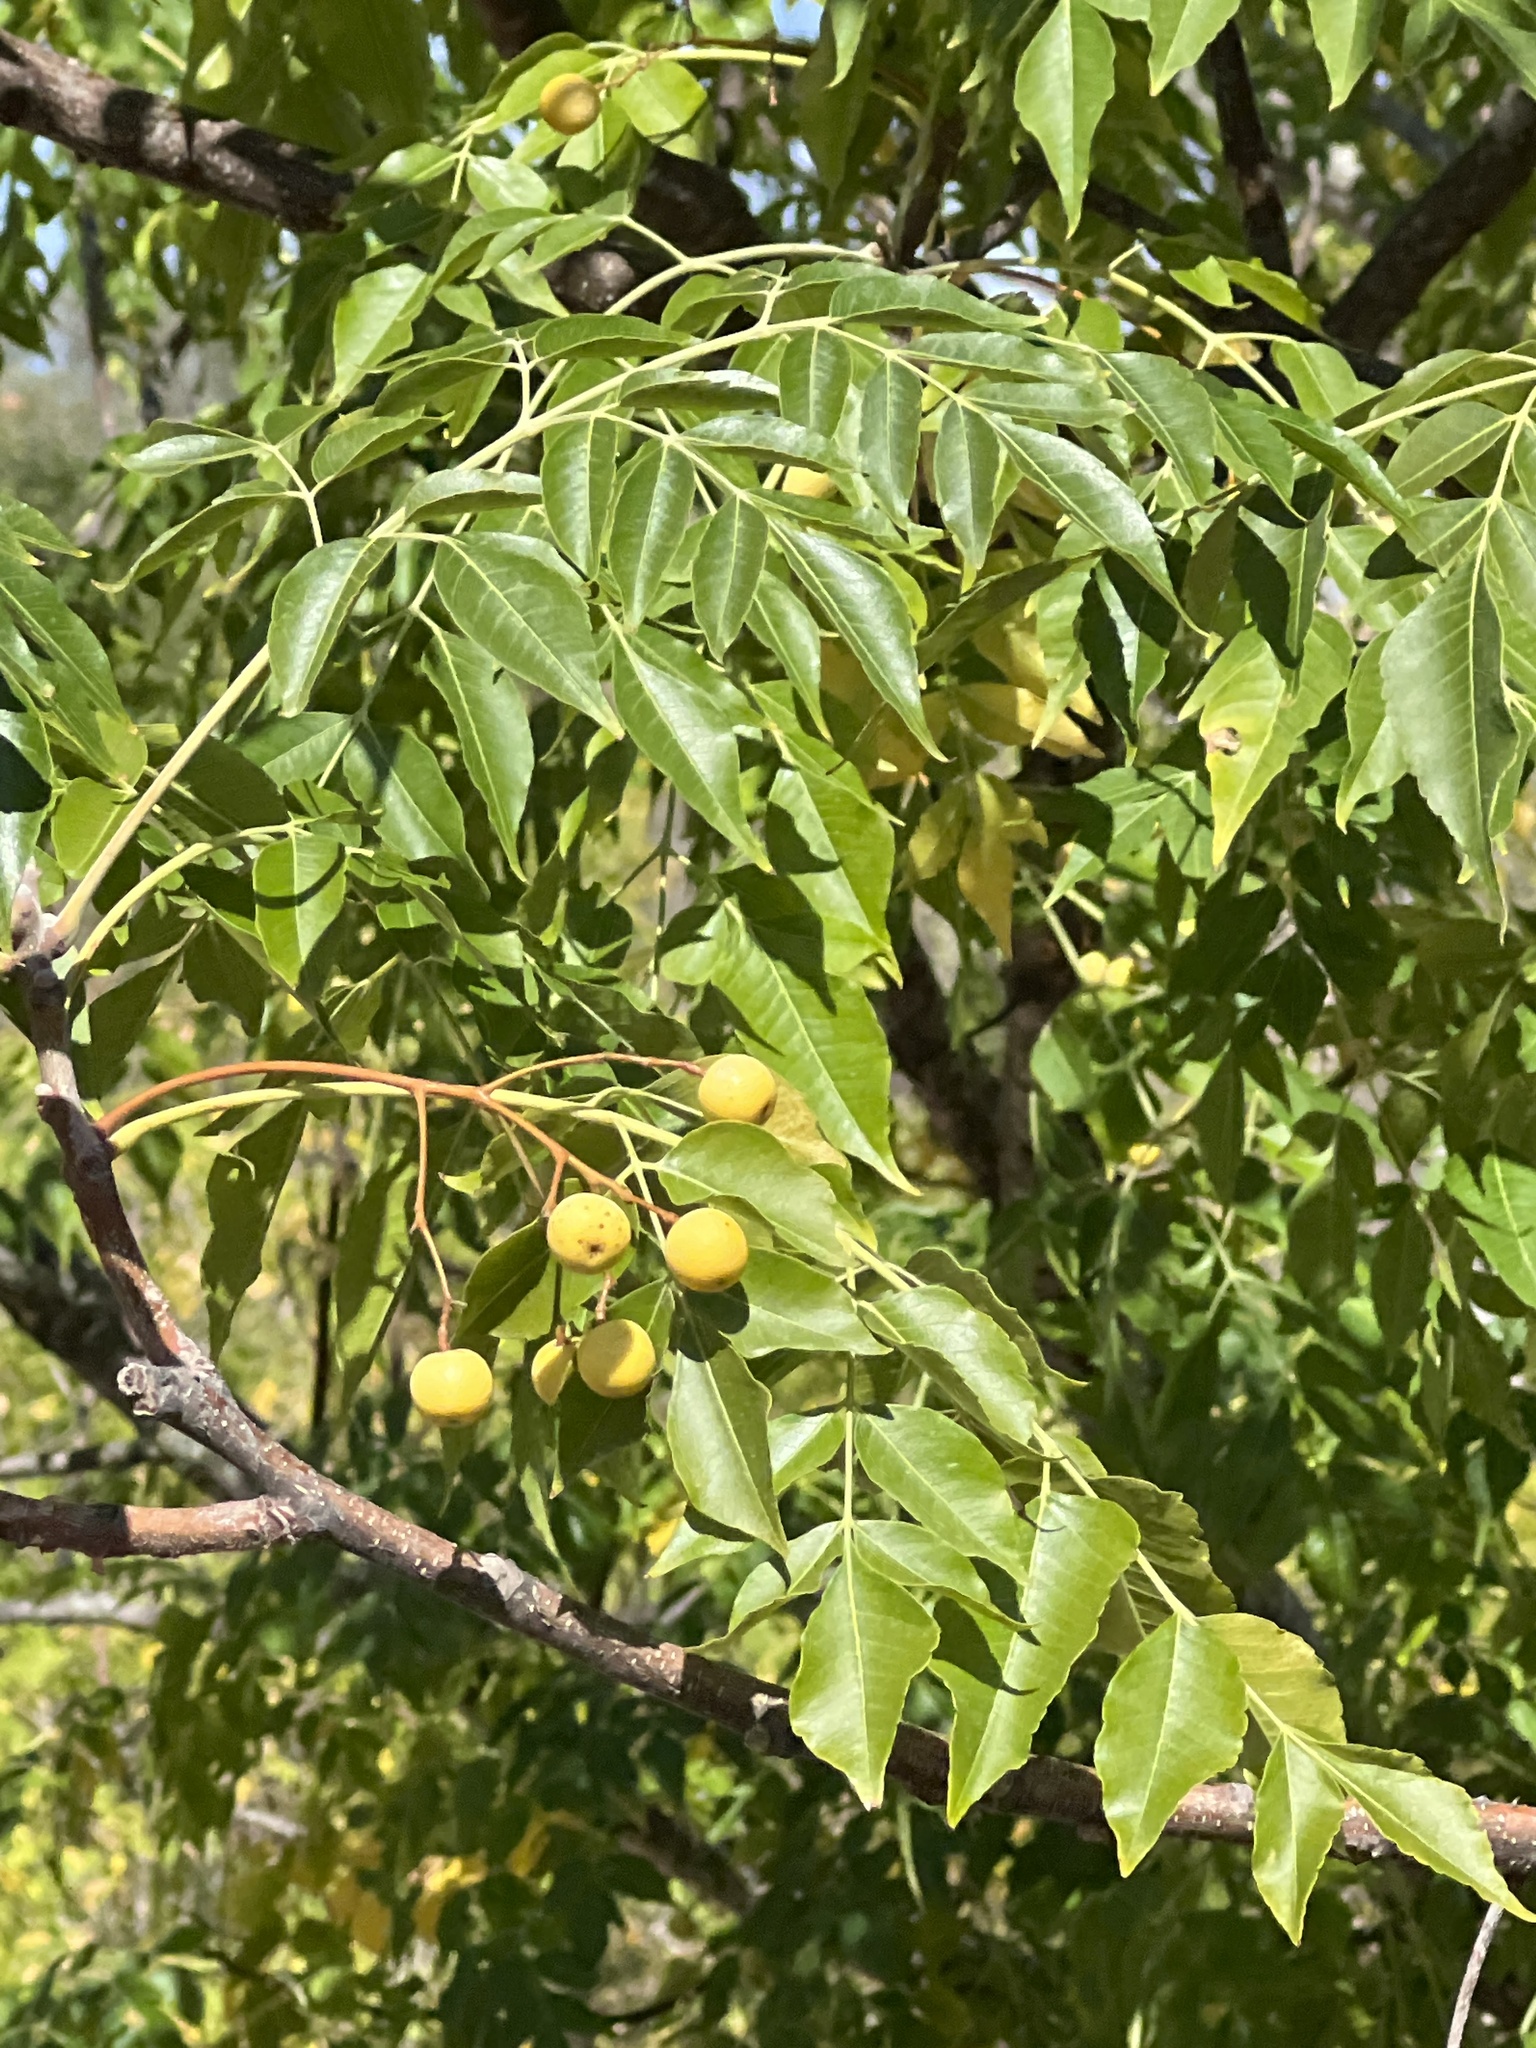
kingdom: Plantae
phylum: Tracheophyta
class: Magnoliopsida
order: Sapindales
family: Meliaceae
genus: Melia
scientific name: Melia azedarach
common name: Chinaberrytree
